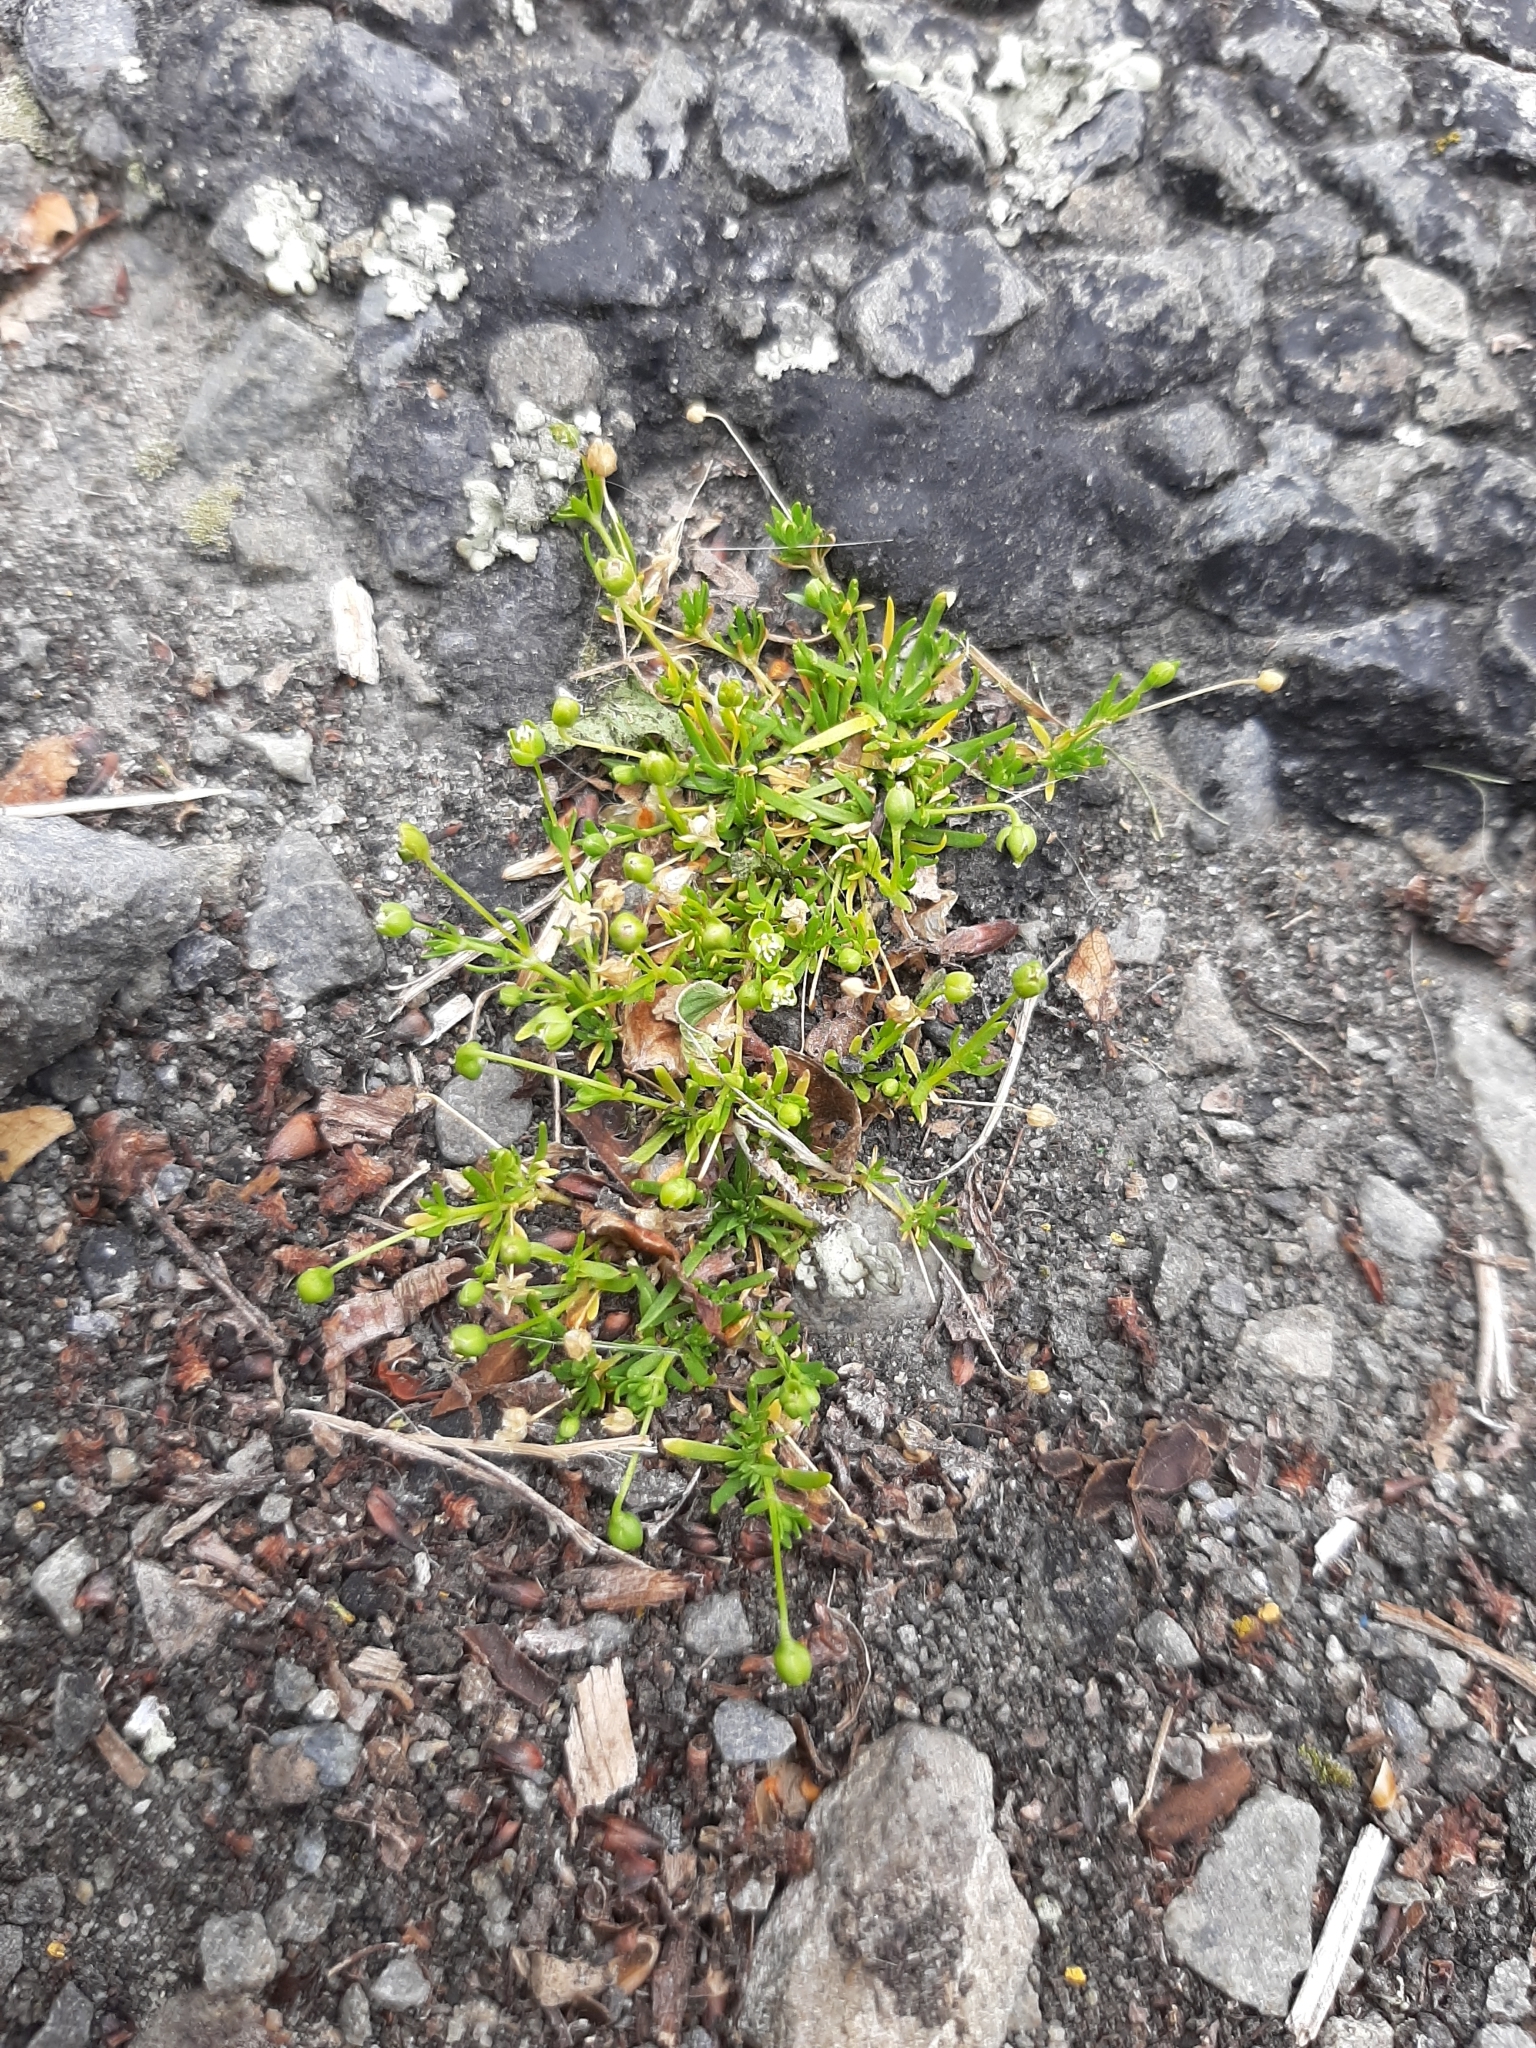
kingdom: Plantae
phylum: Tracheophyta
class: Magnoliopsida
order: Caryophyllales
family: Caryophyllaceae
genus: Sagina
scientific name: Sagina procumbens
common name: Procumbent pearlwort
